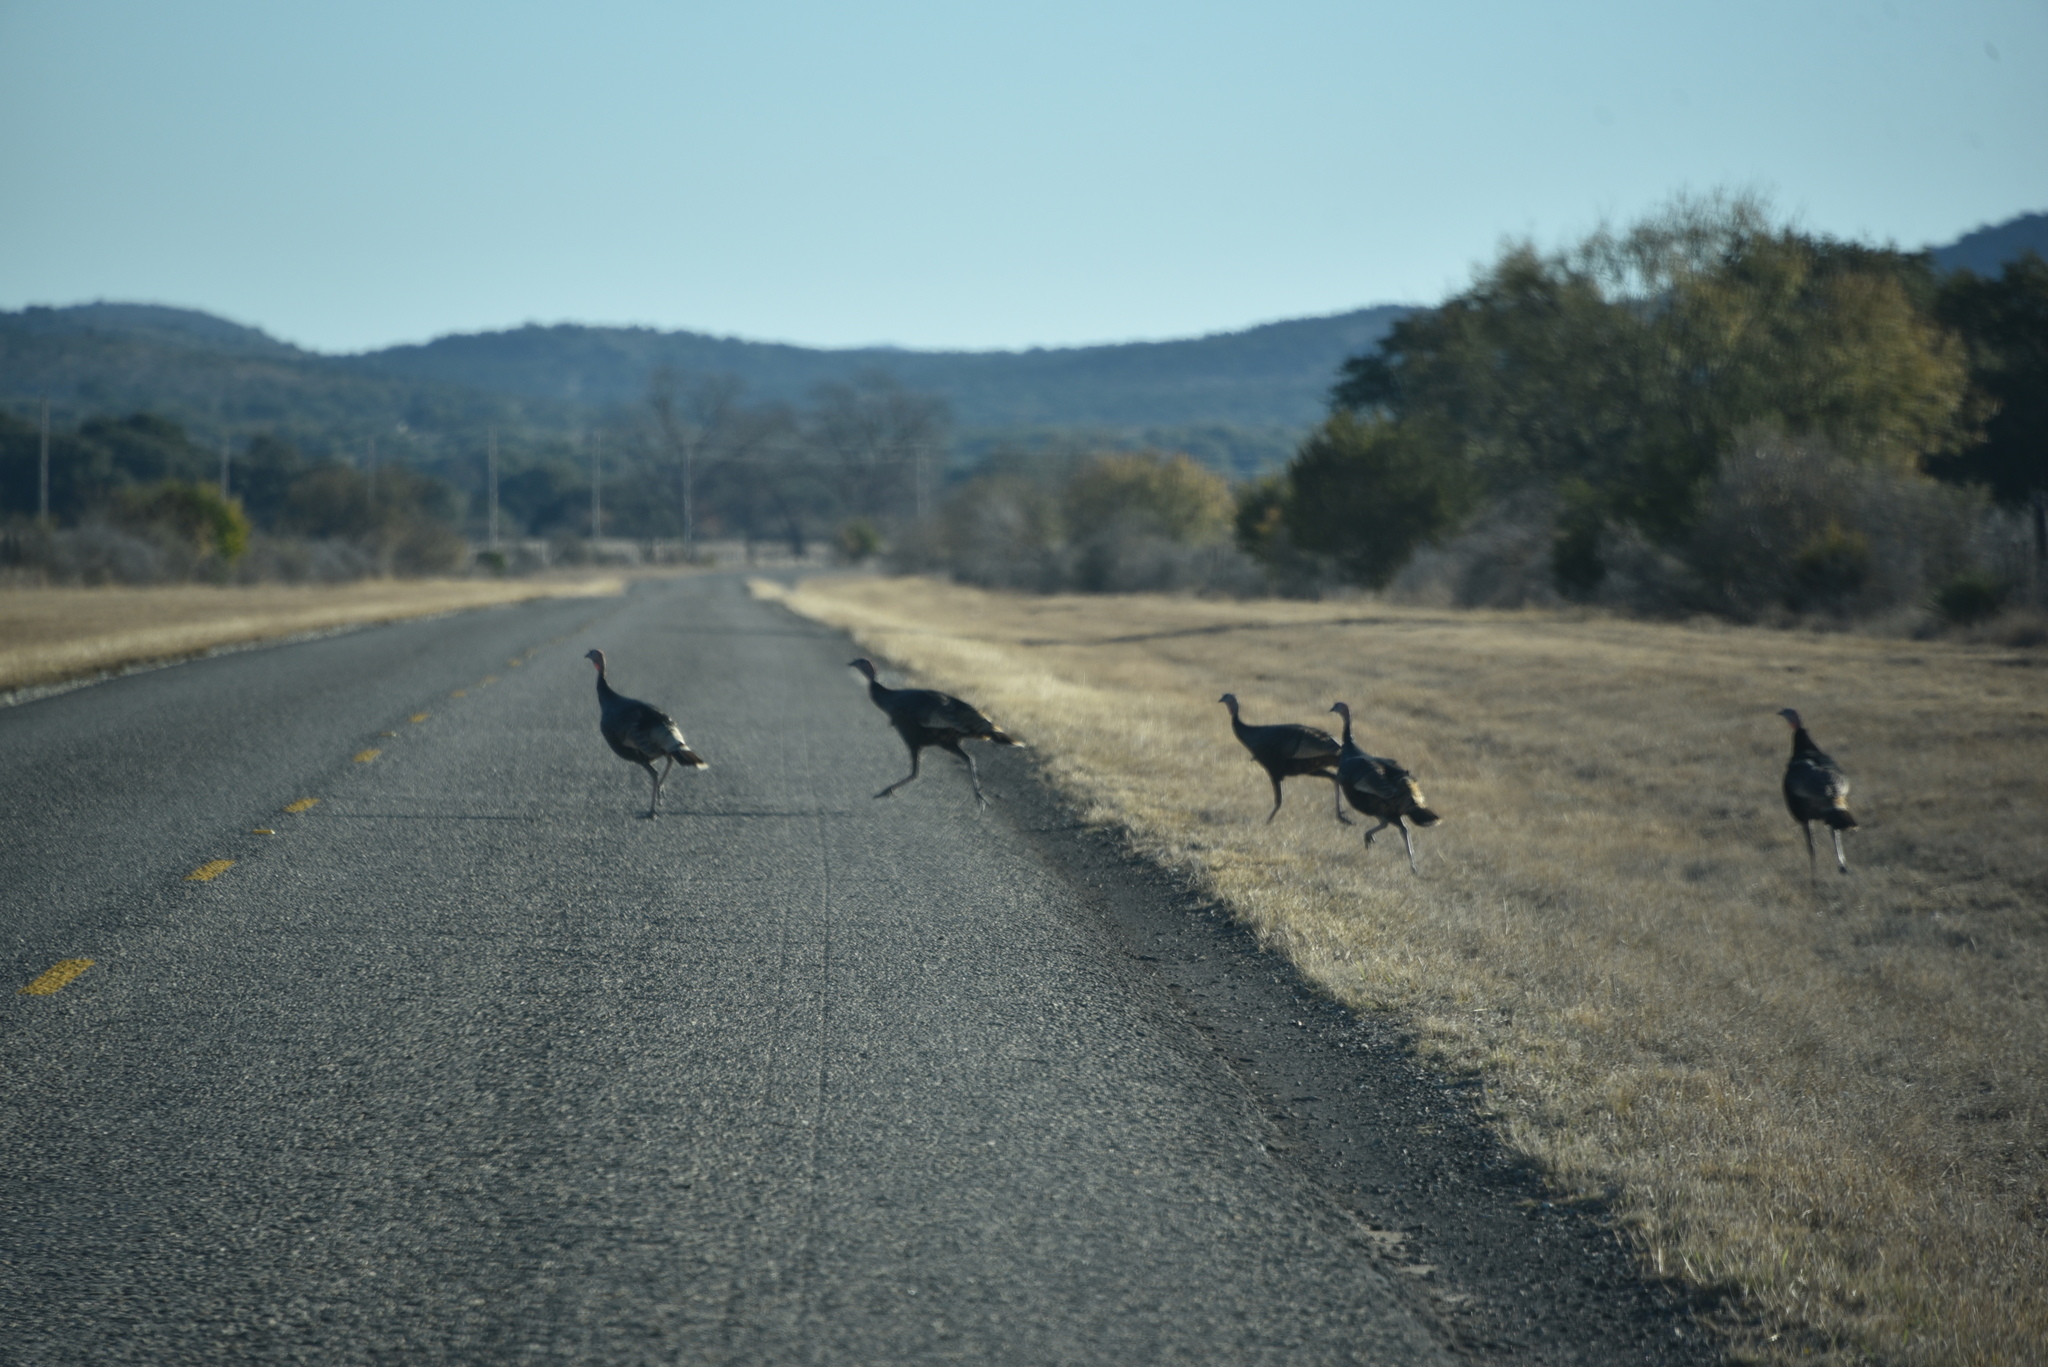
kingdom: Animalia
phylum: Chordata
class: Aves
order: Galliformes
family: Phasianidae
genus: Meleagris
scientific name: Meleagris gallopavo
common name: Wild turkey
